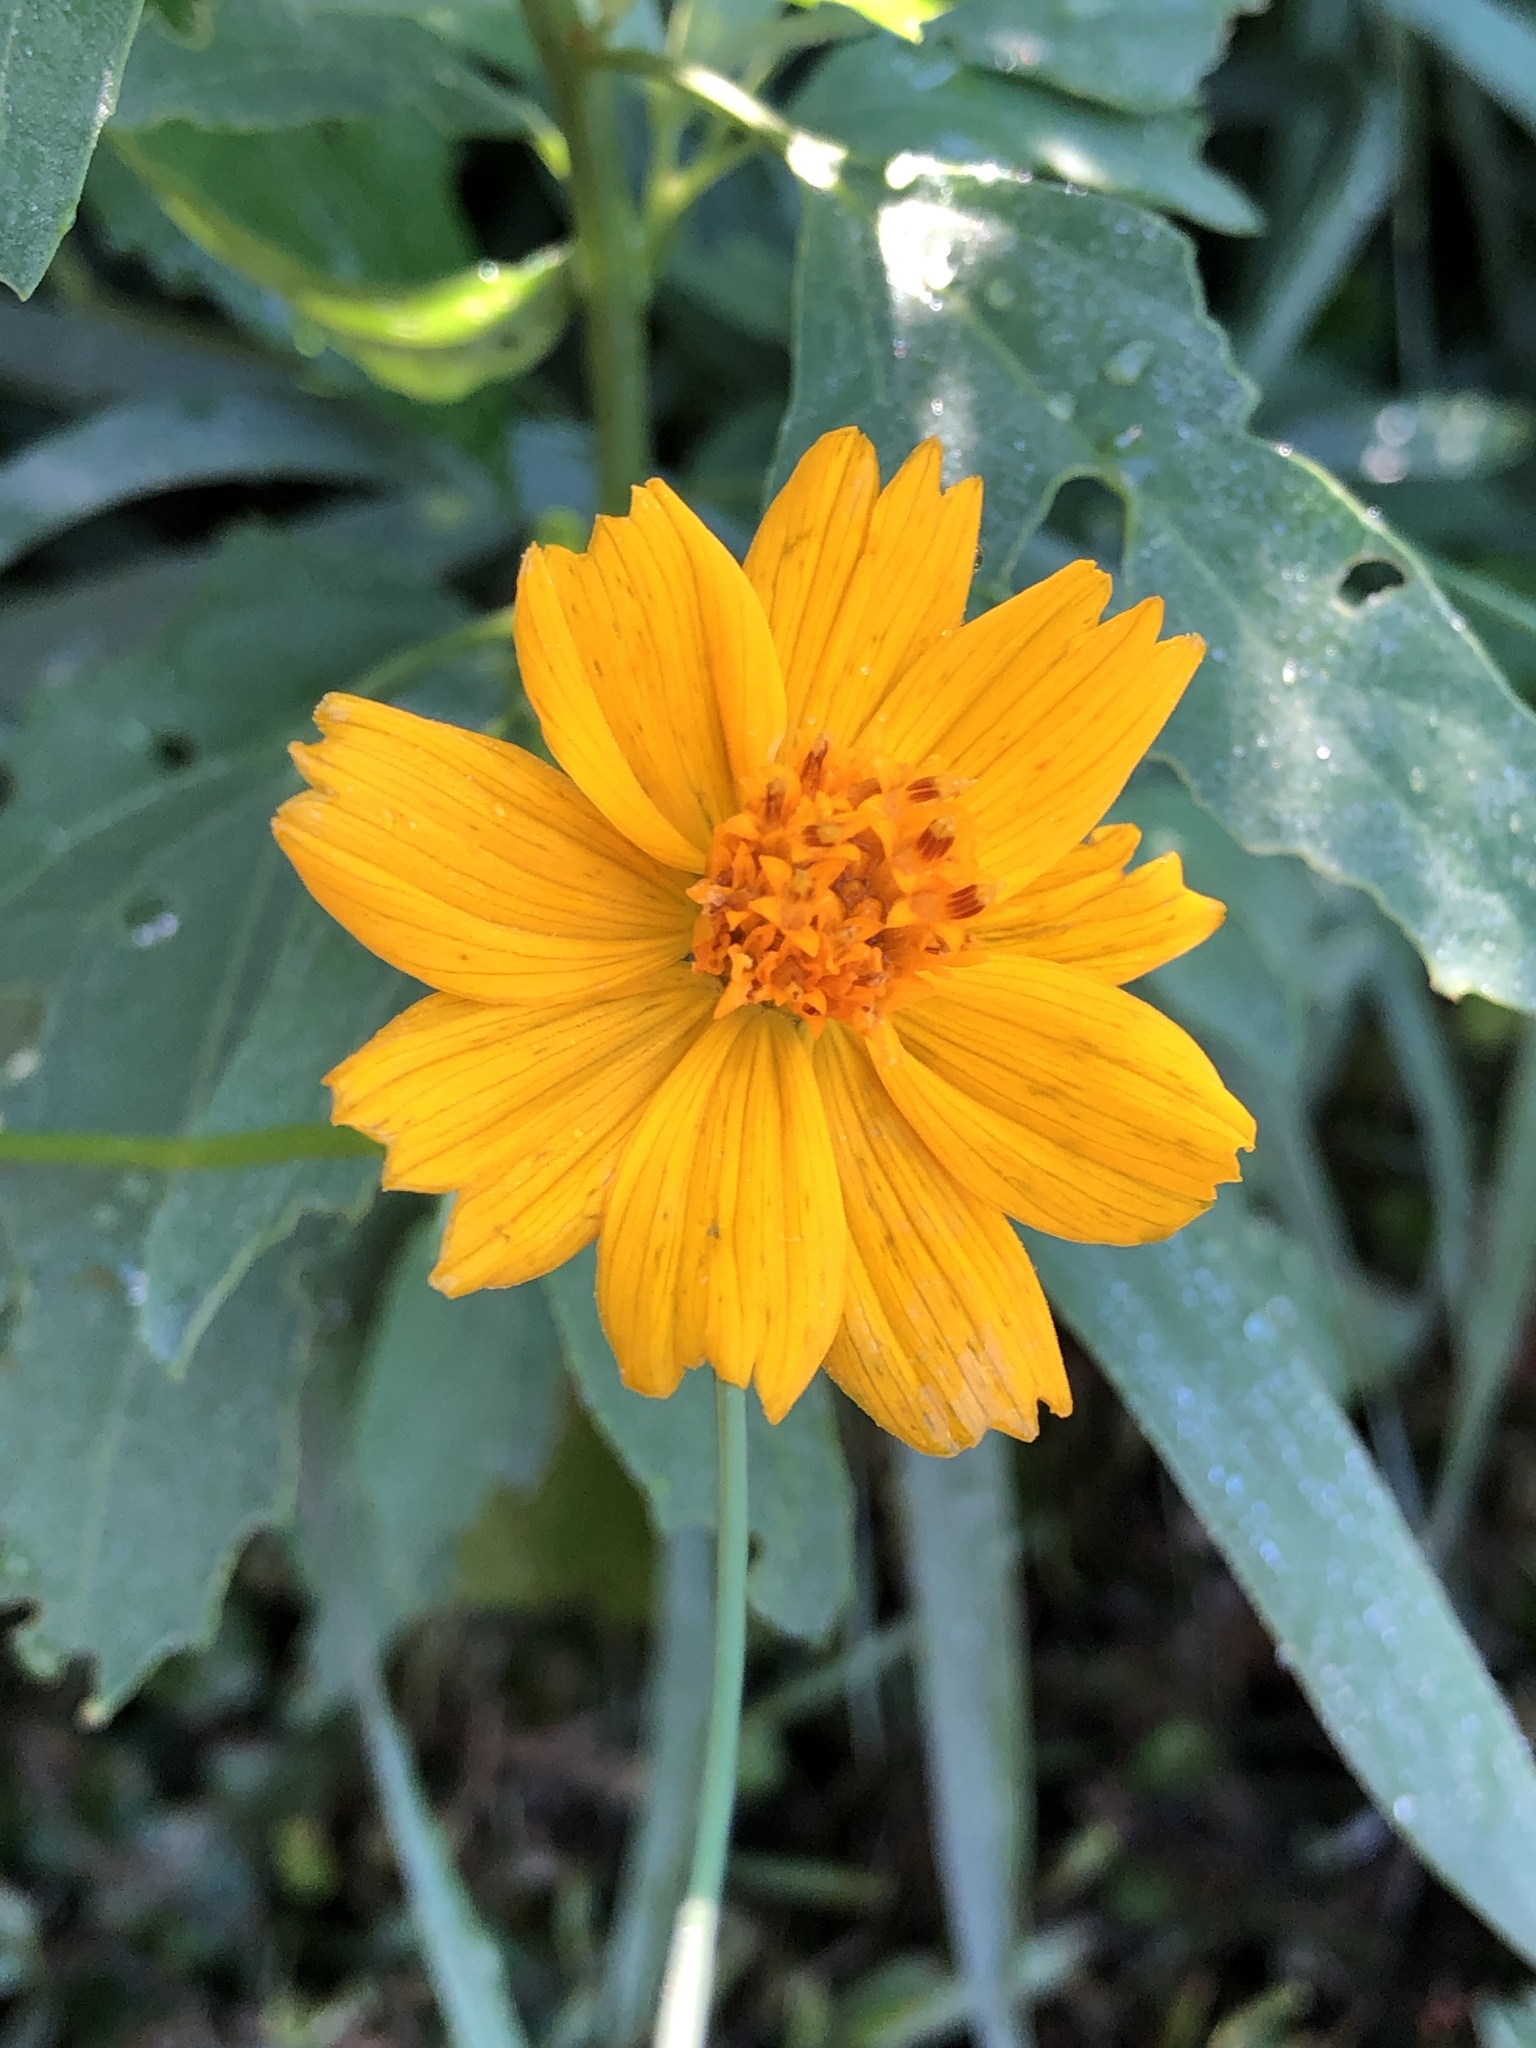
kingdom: Plantae
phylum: Tracheophyta
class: Magnoliopsida
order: Asterales
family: Asteraceae
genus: Cosmos
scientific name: Cosmos sulphureus
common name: Sulphur cosmos
